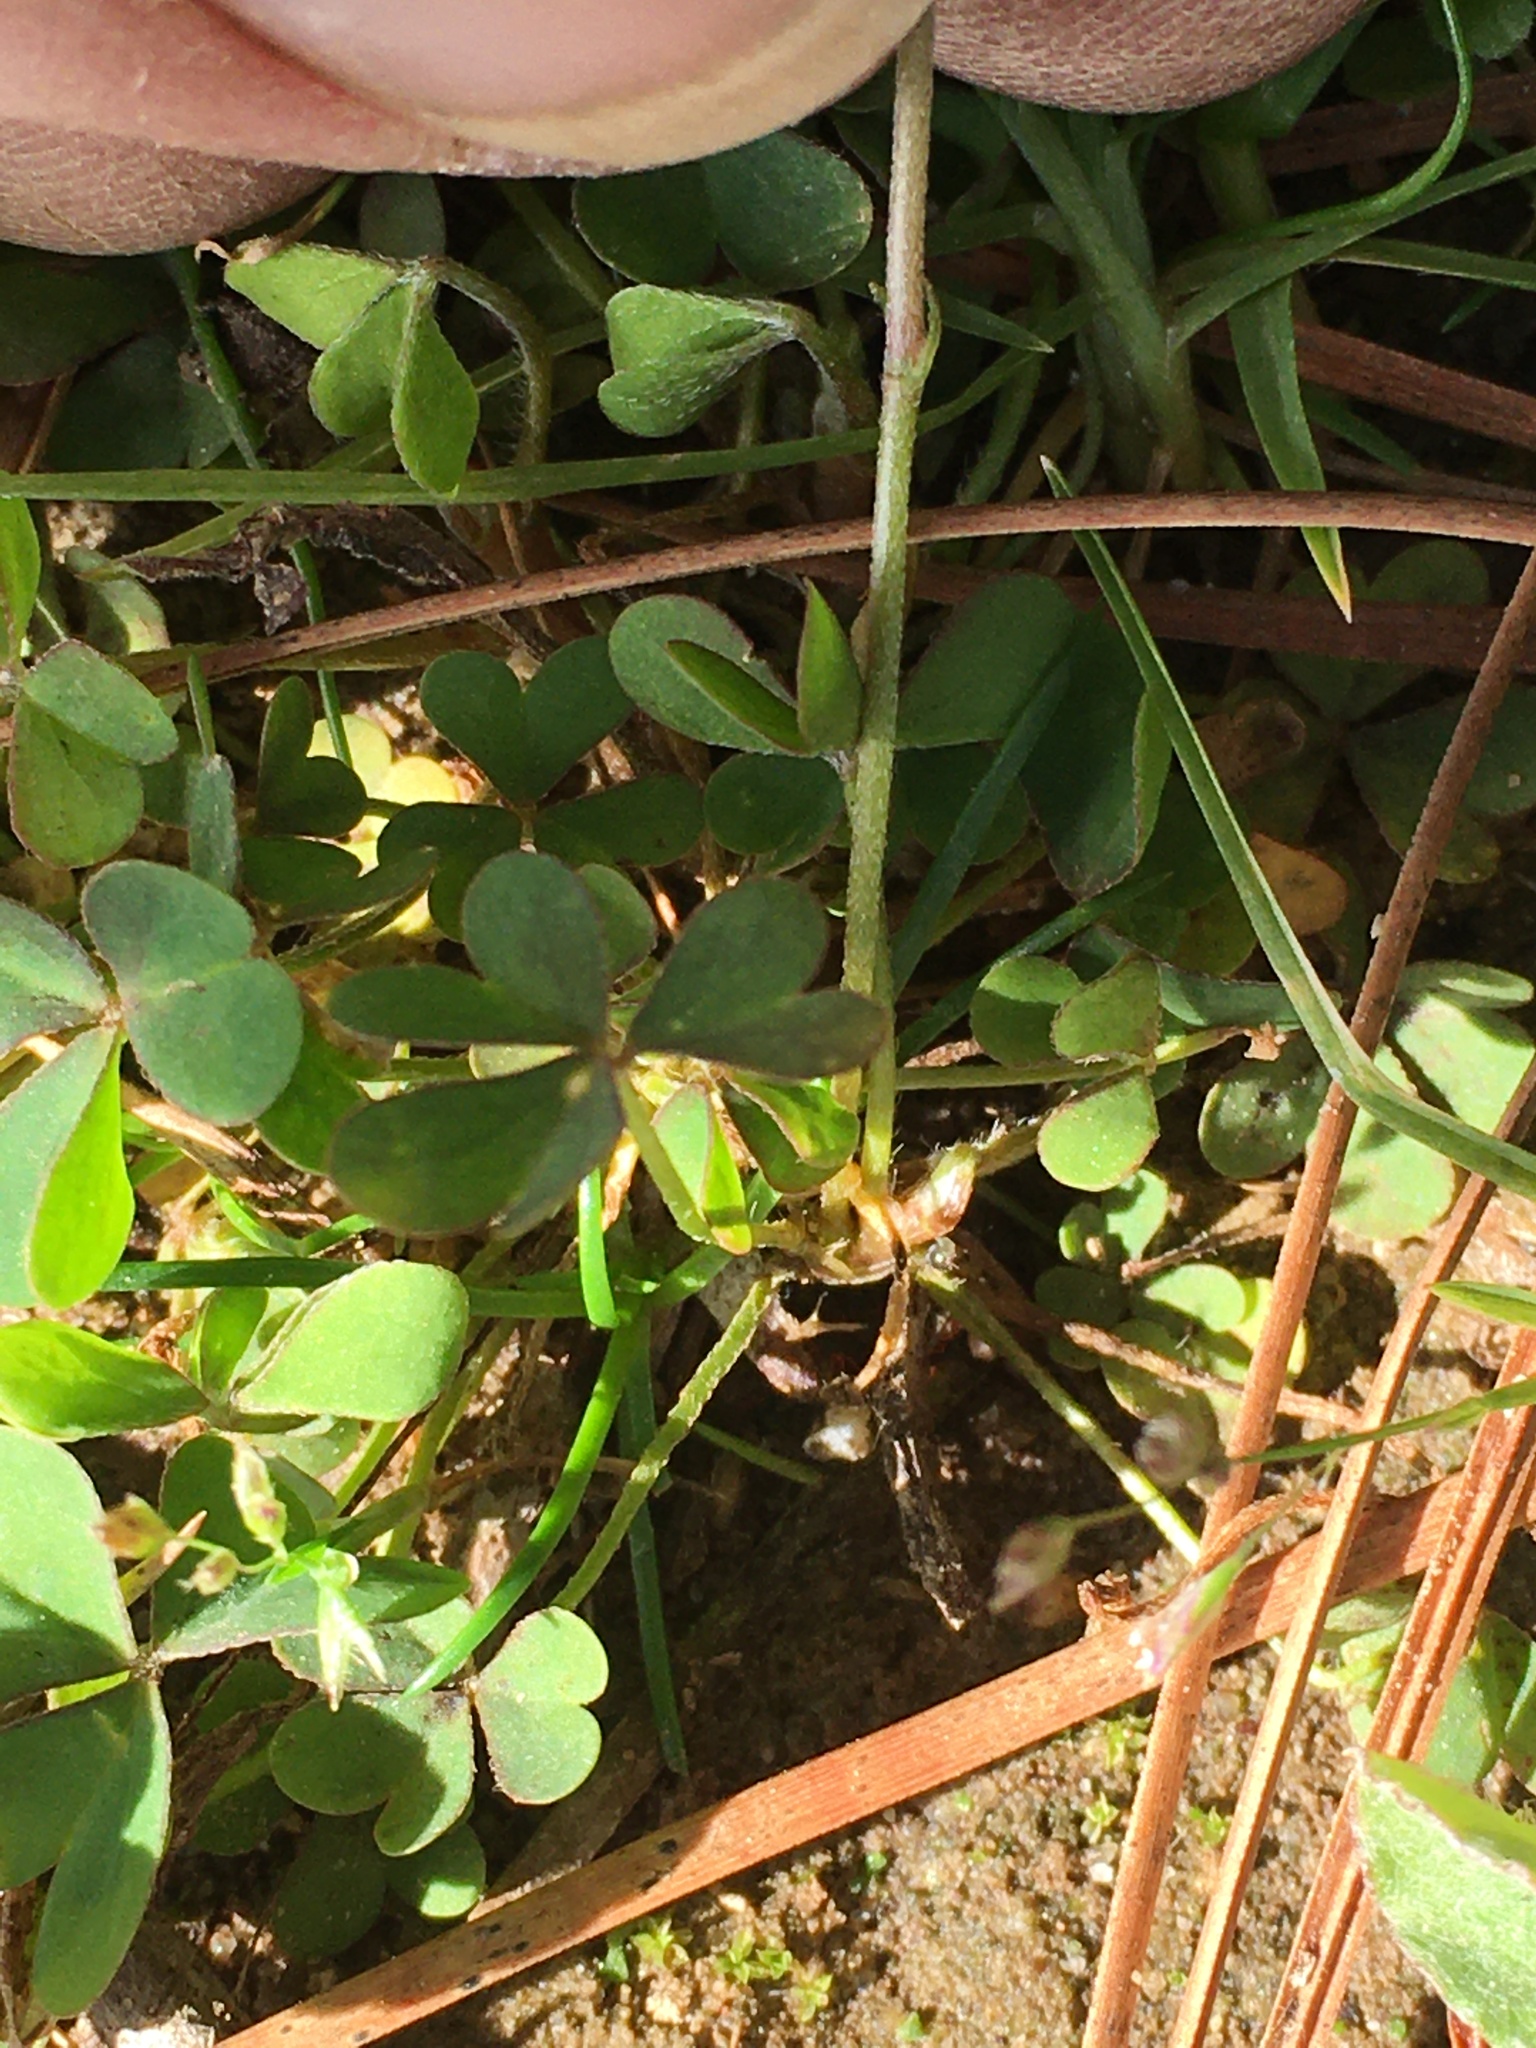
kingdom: Plantae
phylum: Tracheophyta
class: Magnoliopsida
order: Oxalidales
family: Oxalidaceae
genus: Oxalis
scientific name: Oxalis corniculata
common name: Procumbent yellow-sorrel
